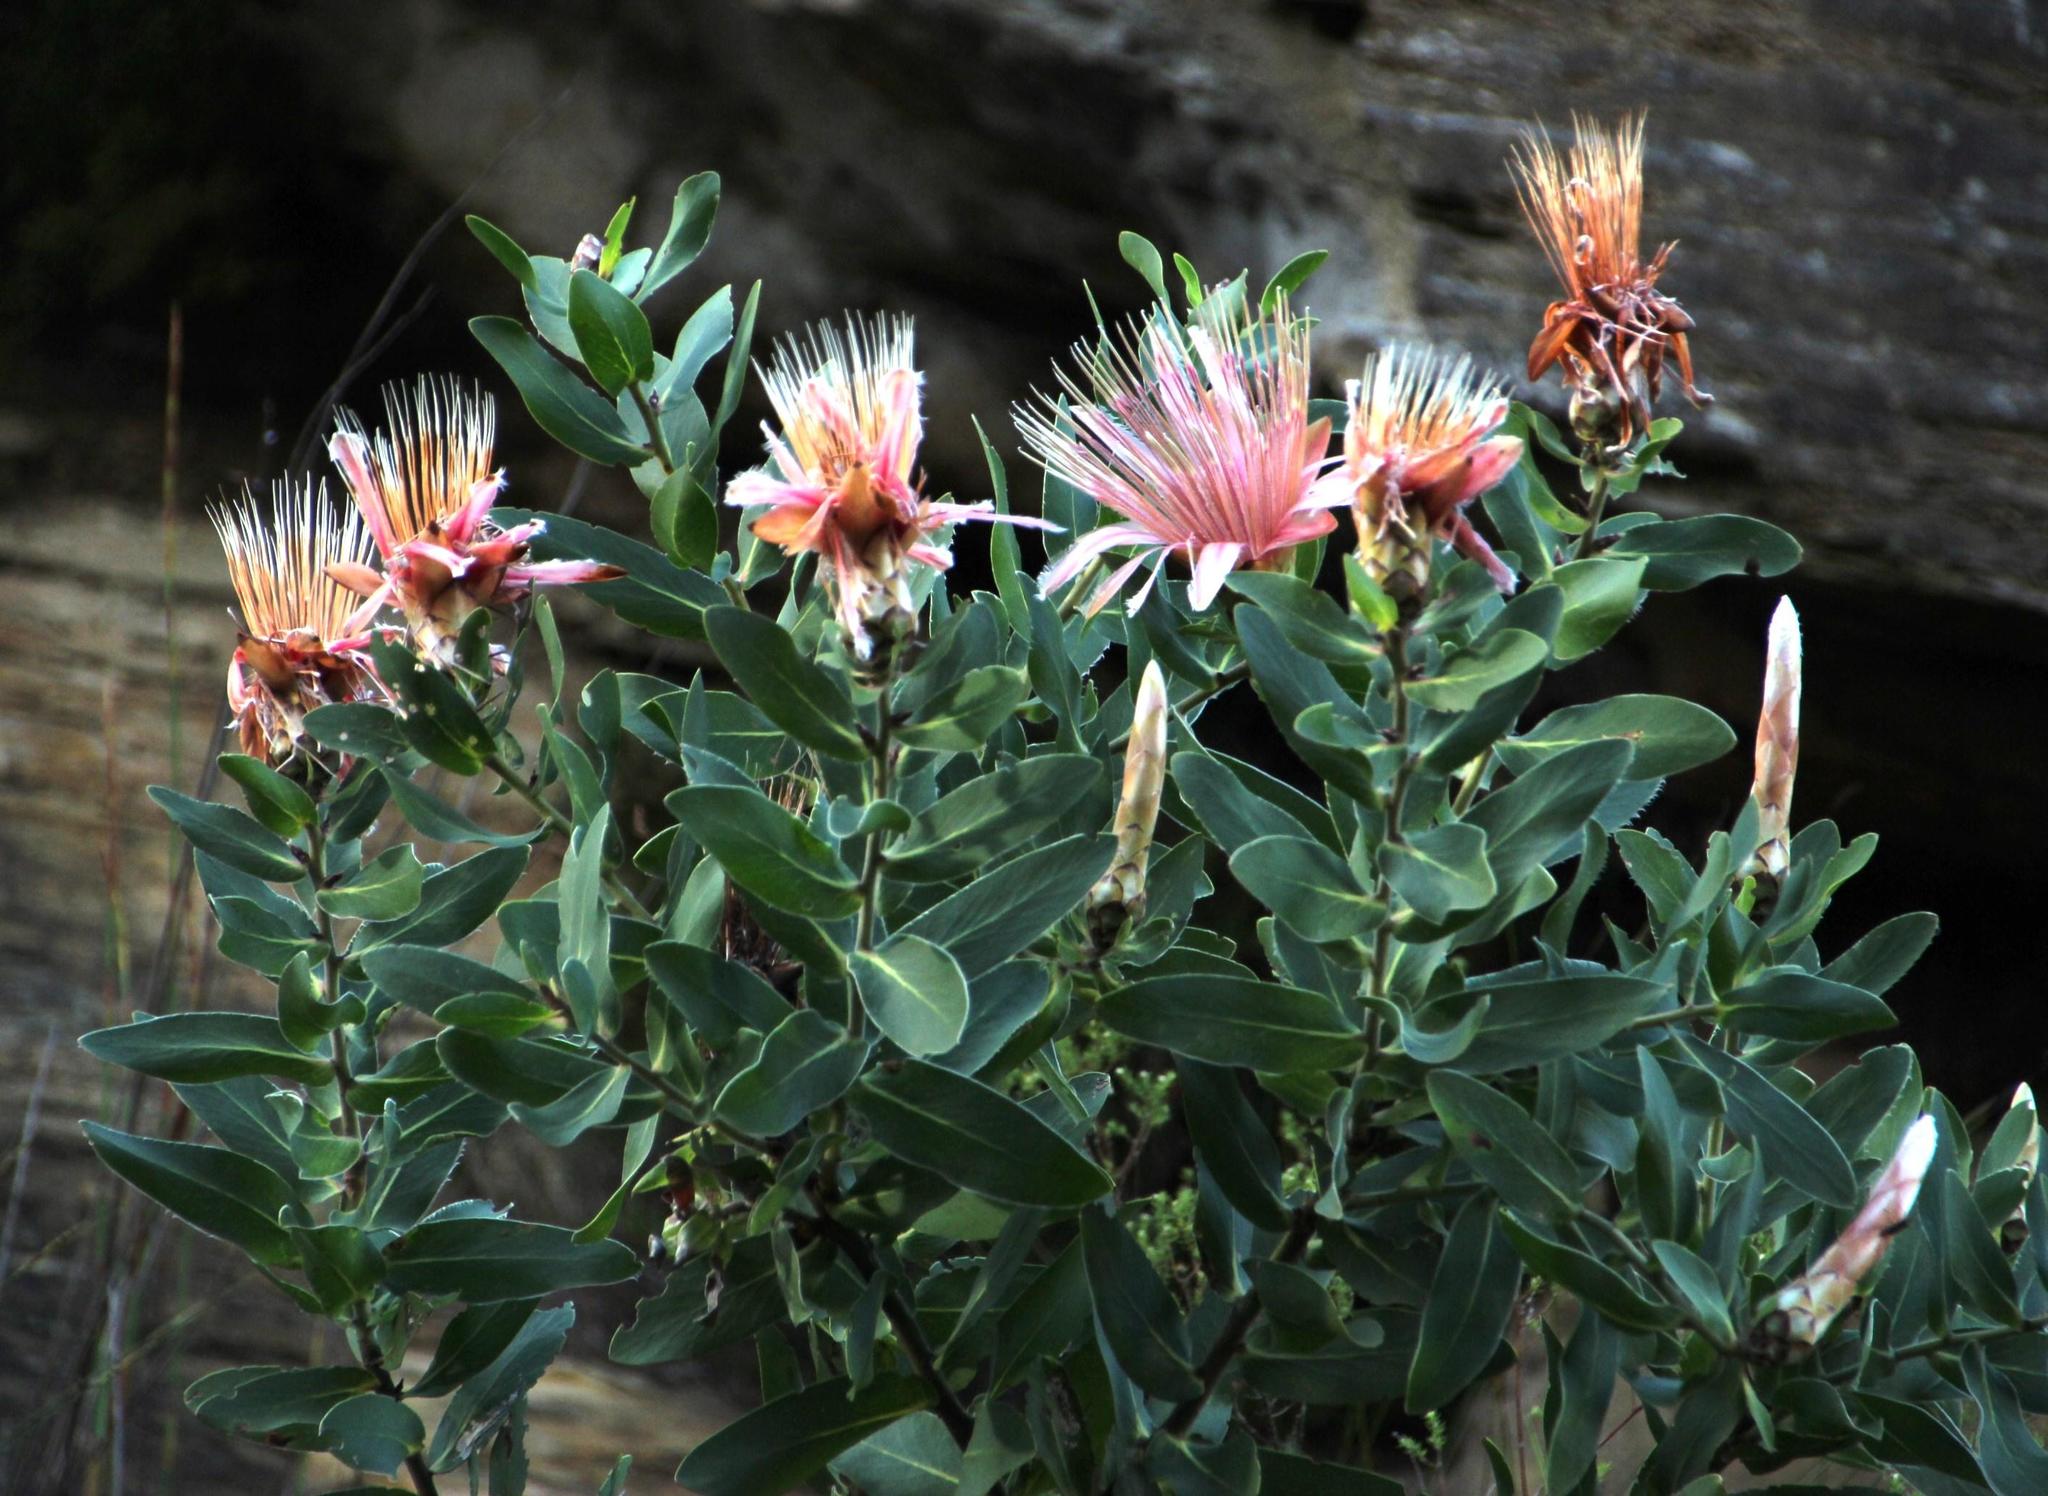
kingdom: Plantae
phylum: Tracheophyta
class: Magnoliopsida
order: Proteales
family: Proteaceae
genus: Protea
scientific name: Protea aurea
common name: Shuttlecock sugarbush
